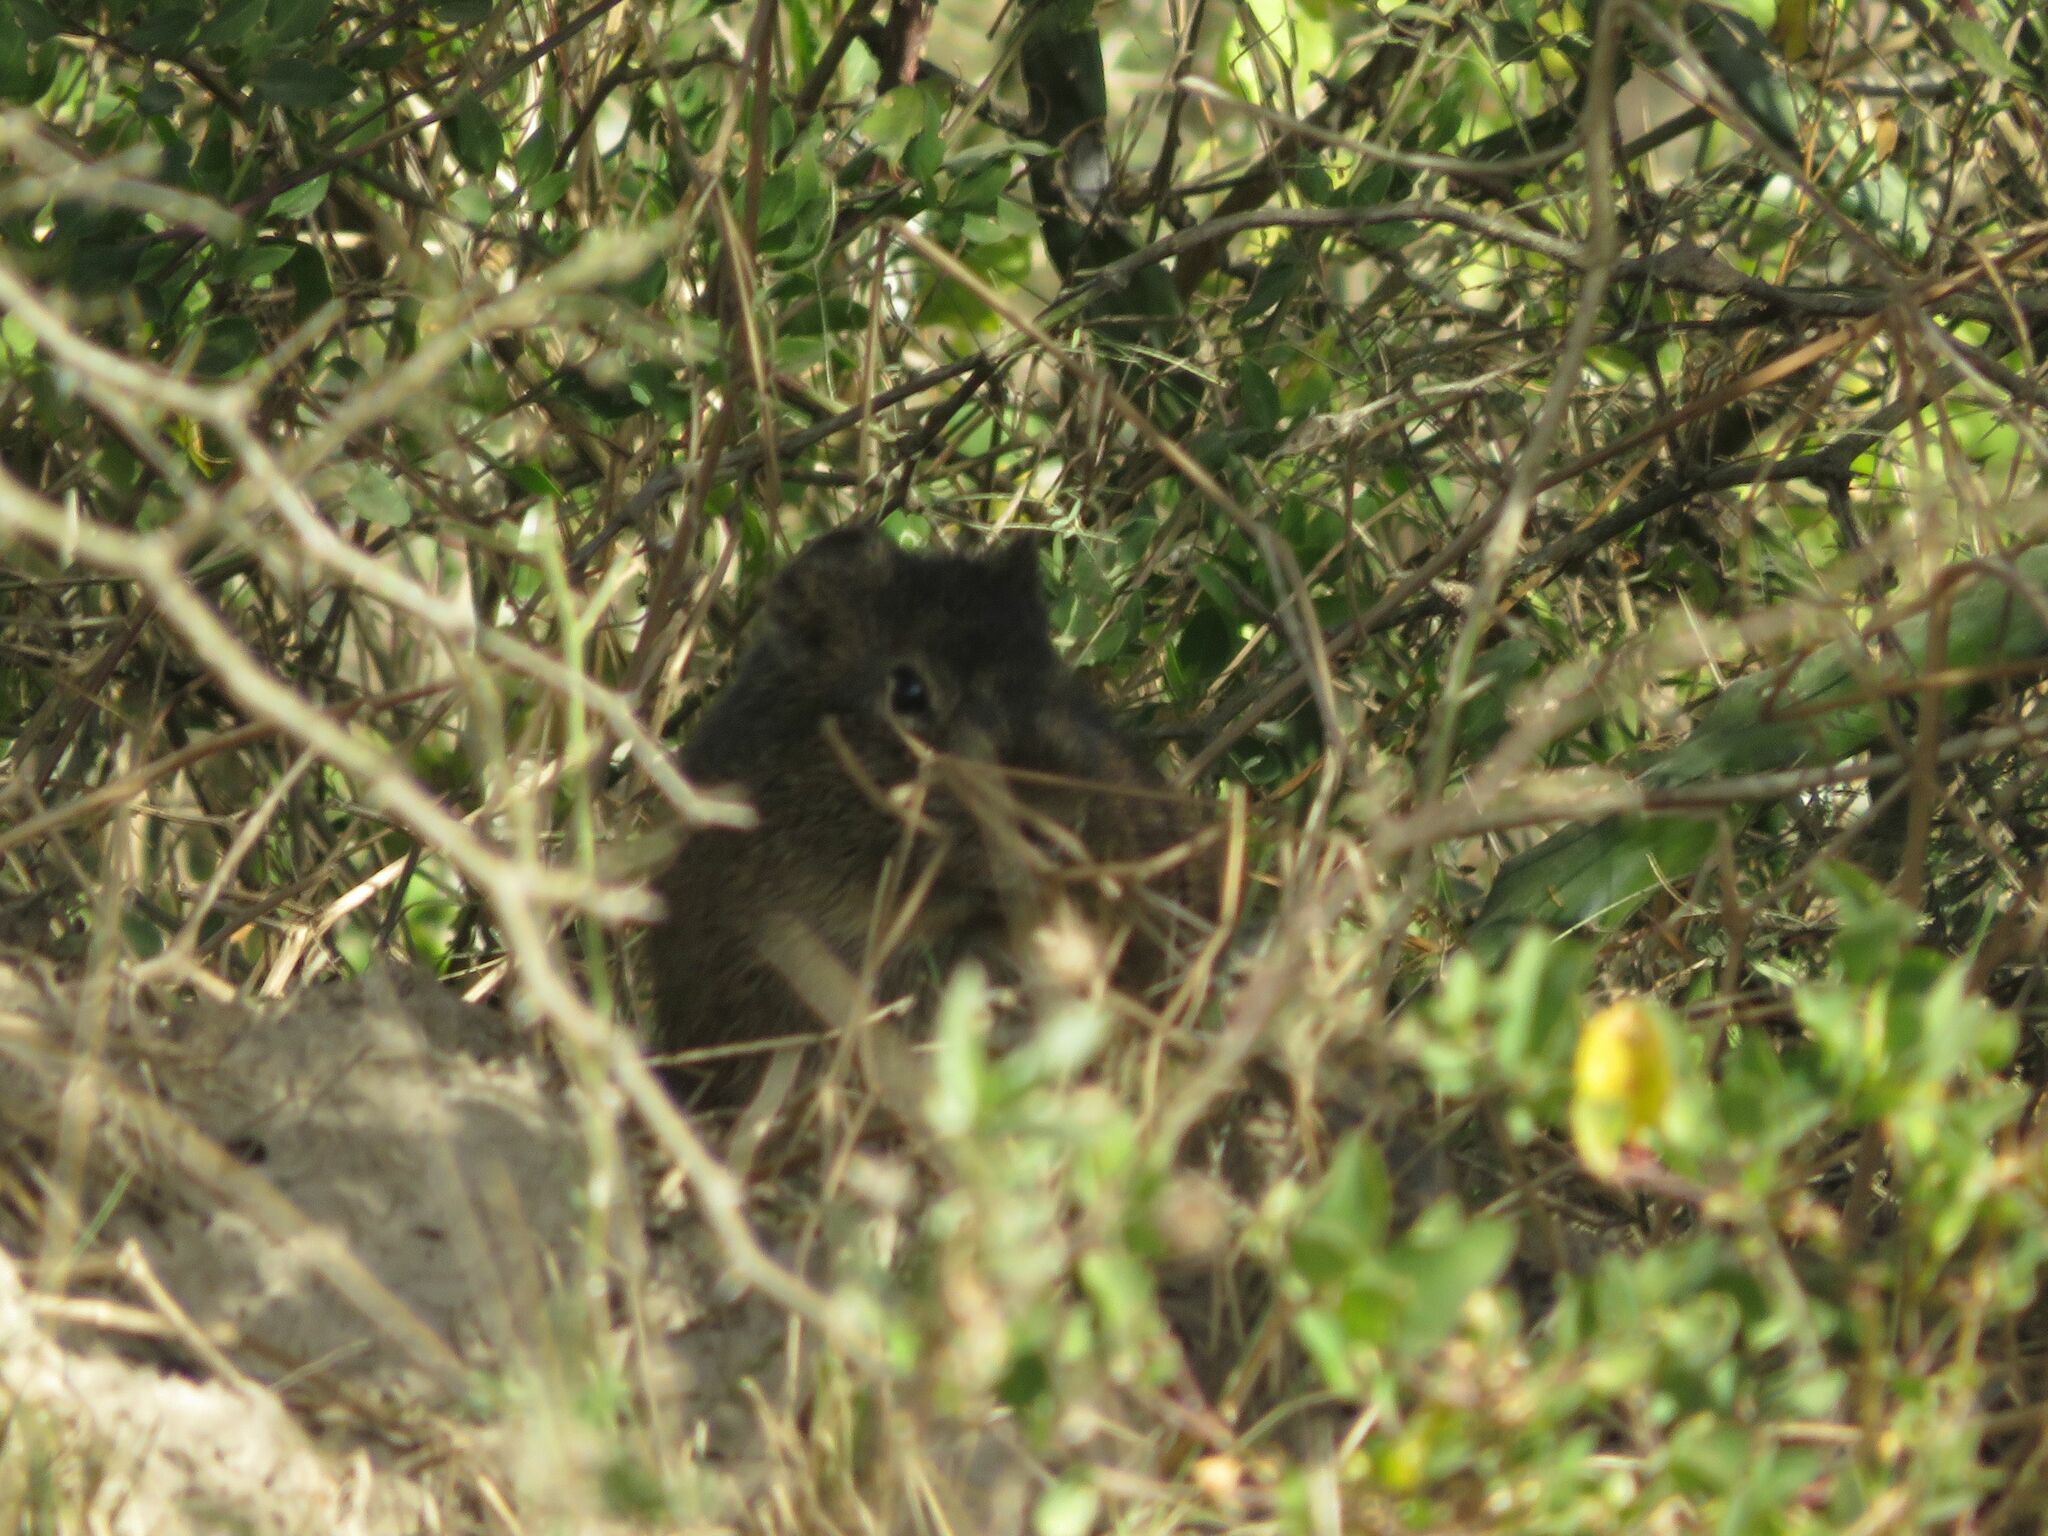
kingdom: Animalia
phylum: Chordata
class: Mammalia
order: Rodentia
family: Caviidae
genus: Cavia
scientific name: Cavia aperea
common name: Brazilian guinea pig
